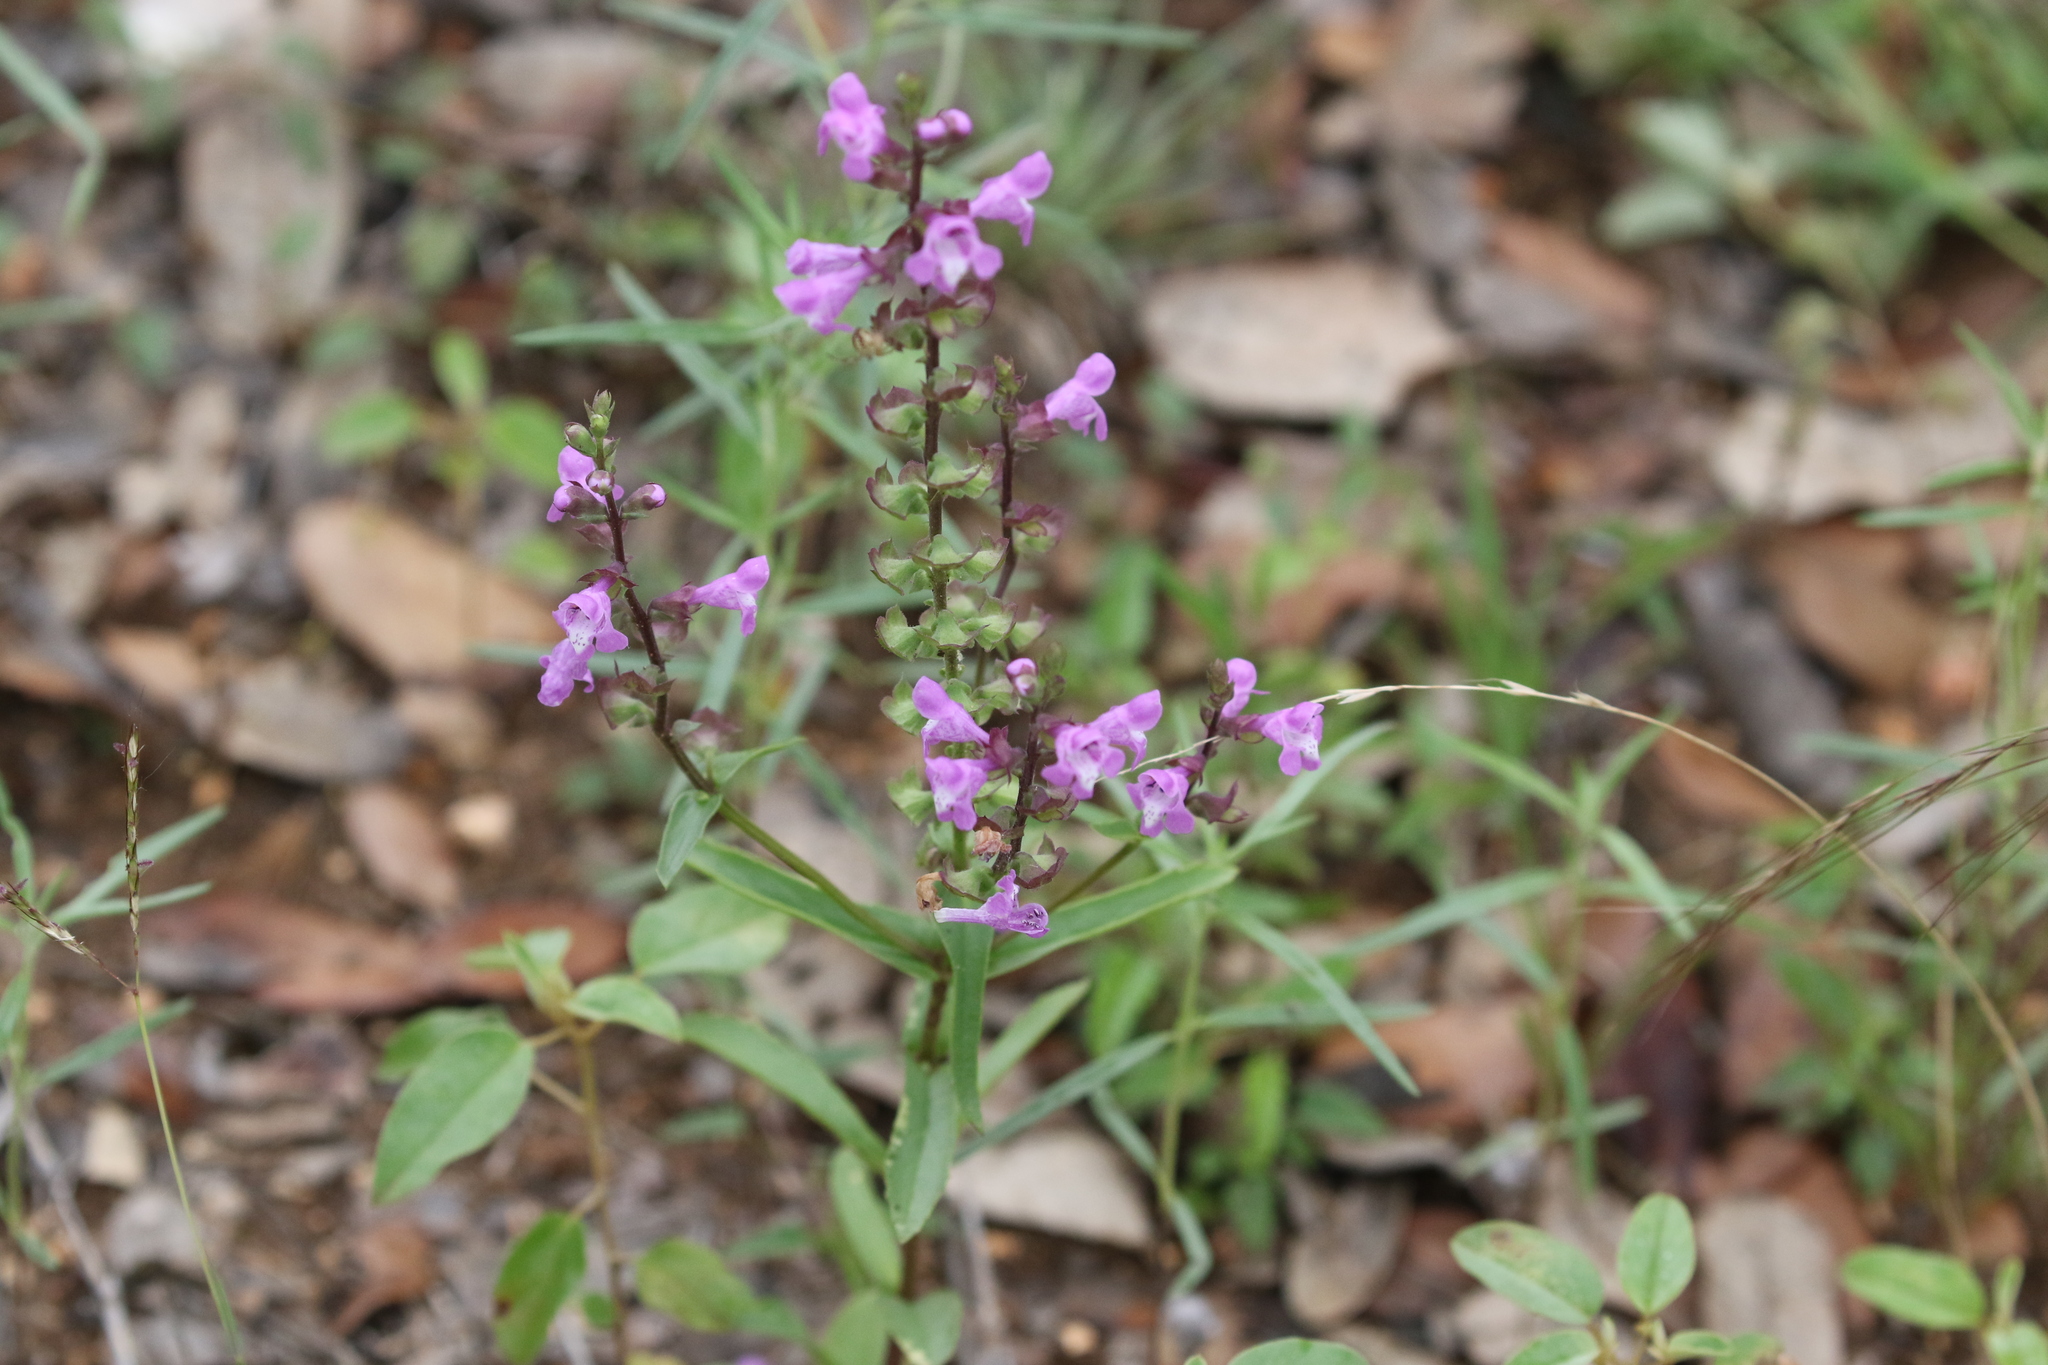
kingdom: Plantae
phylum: Tracheophyta
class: Magnoliopsida
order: Lamiales
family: Lamiaceae
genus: Warnockia
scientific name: Warnockia scutellarioides
